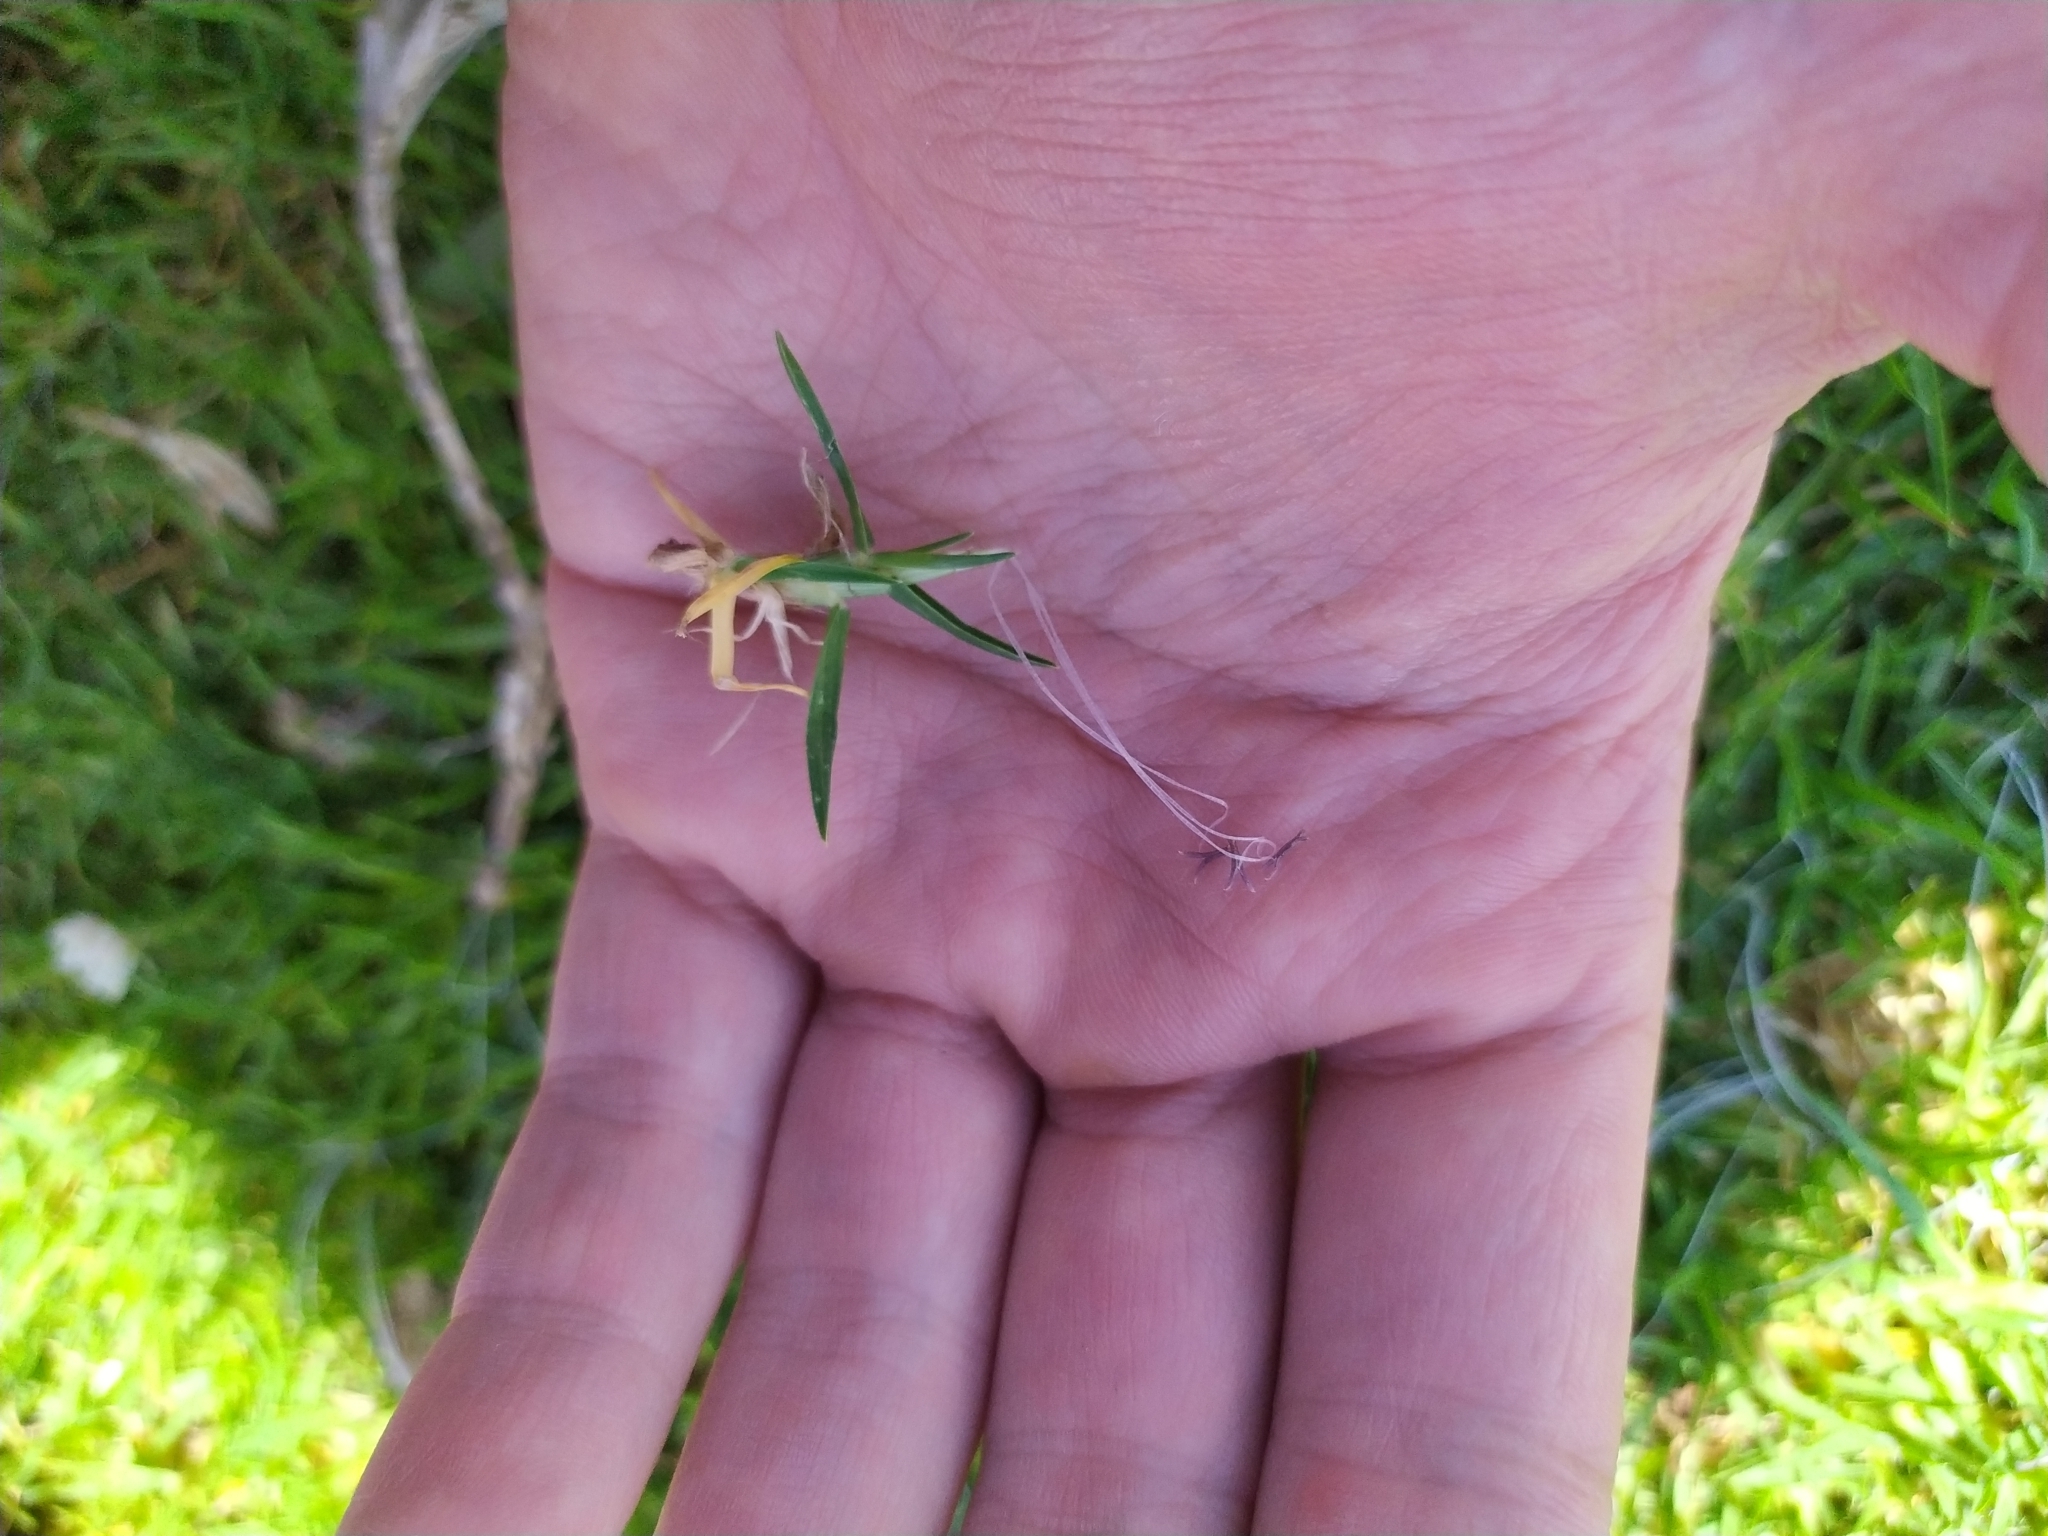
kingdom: Plantae
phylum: Tracheophyta
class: Liliopsida
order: Poales
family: Poaceae
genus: Cenchrus
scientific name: Cenchrus clandestinus
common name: Kikuyugrass
